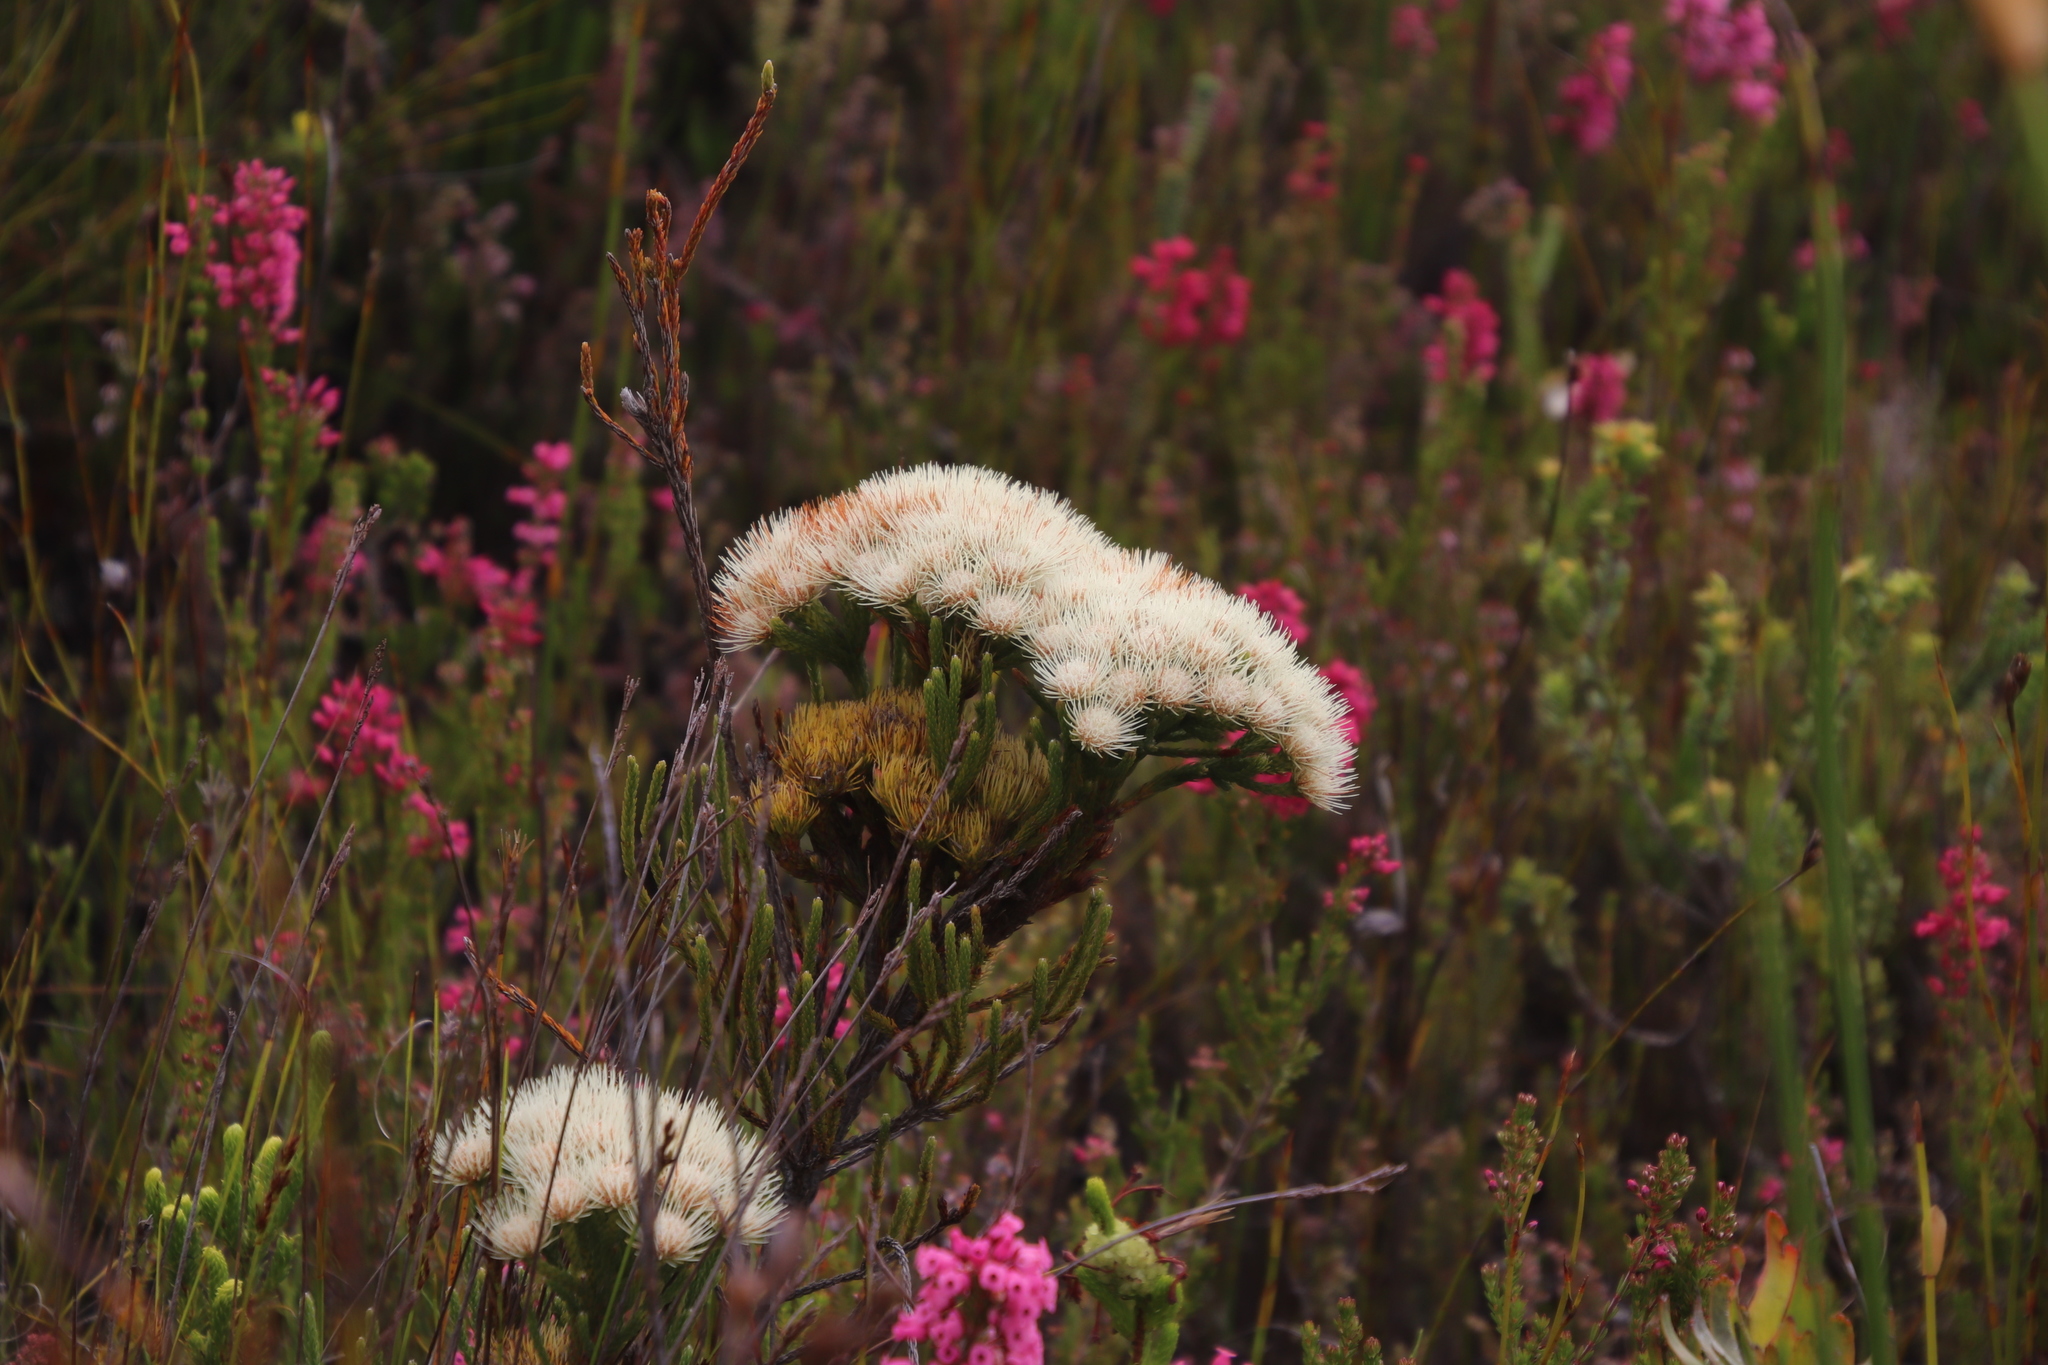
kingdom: Plantae
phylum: Tracheophyta
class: Magnoliopsida
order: Bruniales
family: Bruniaceae
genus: Brunia
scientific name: Brunia paleacea
